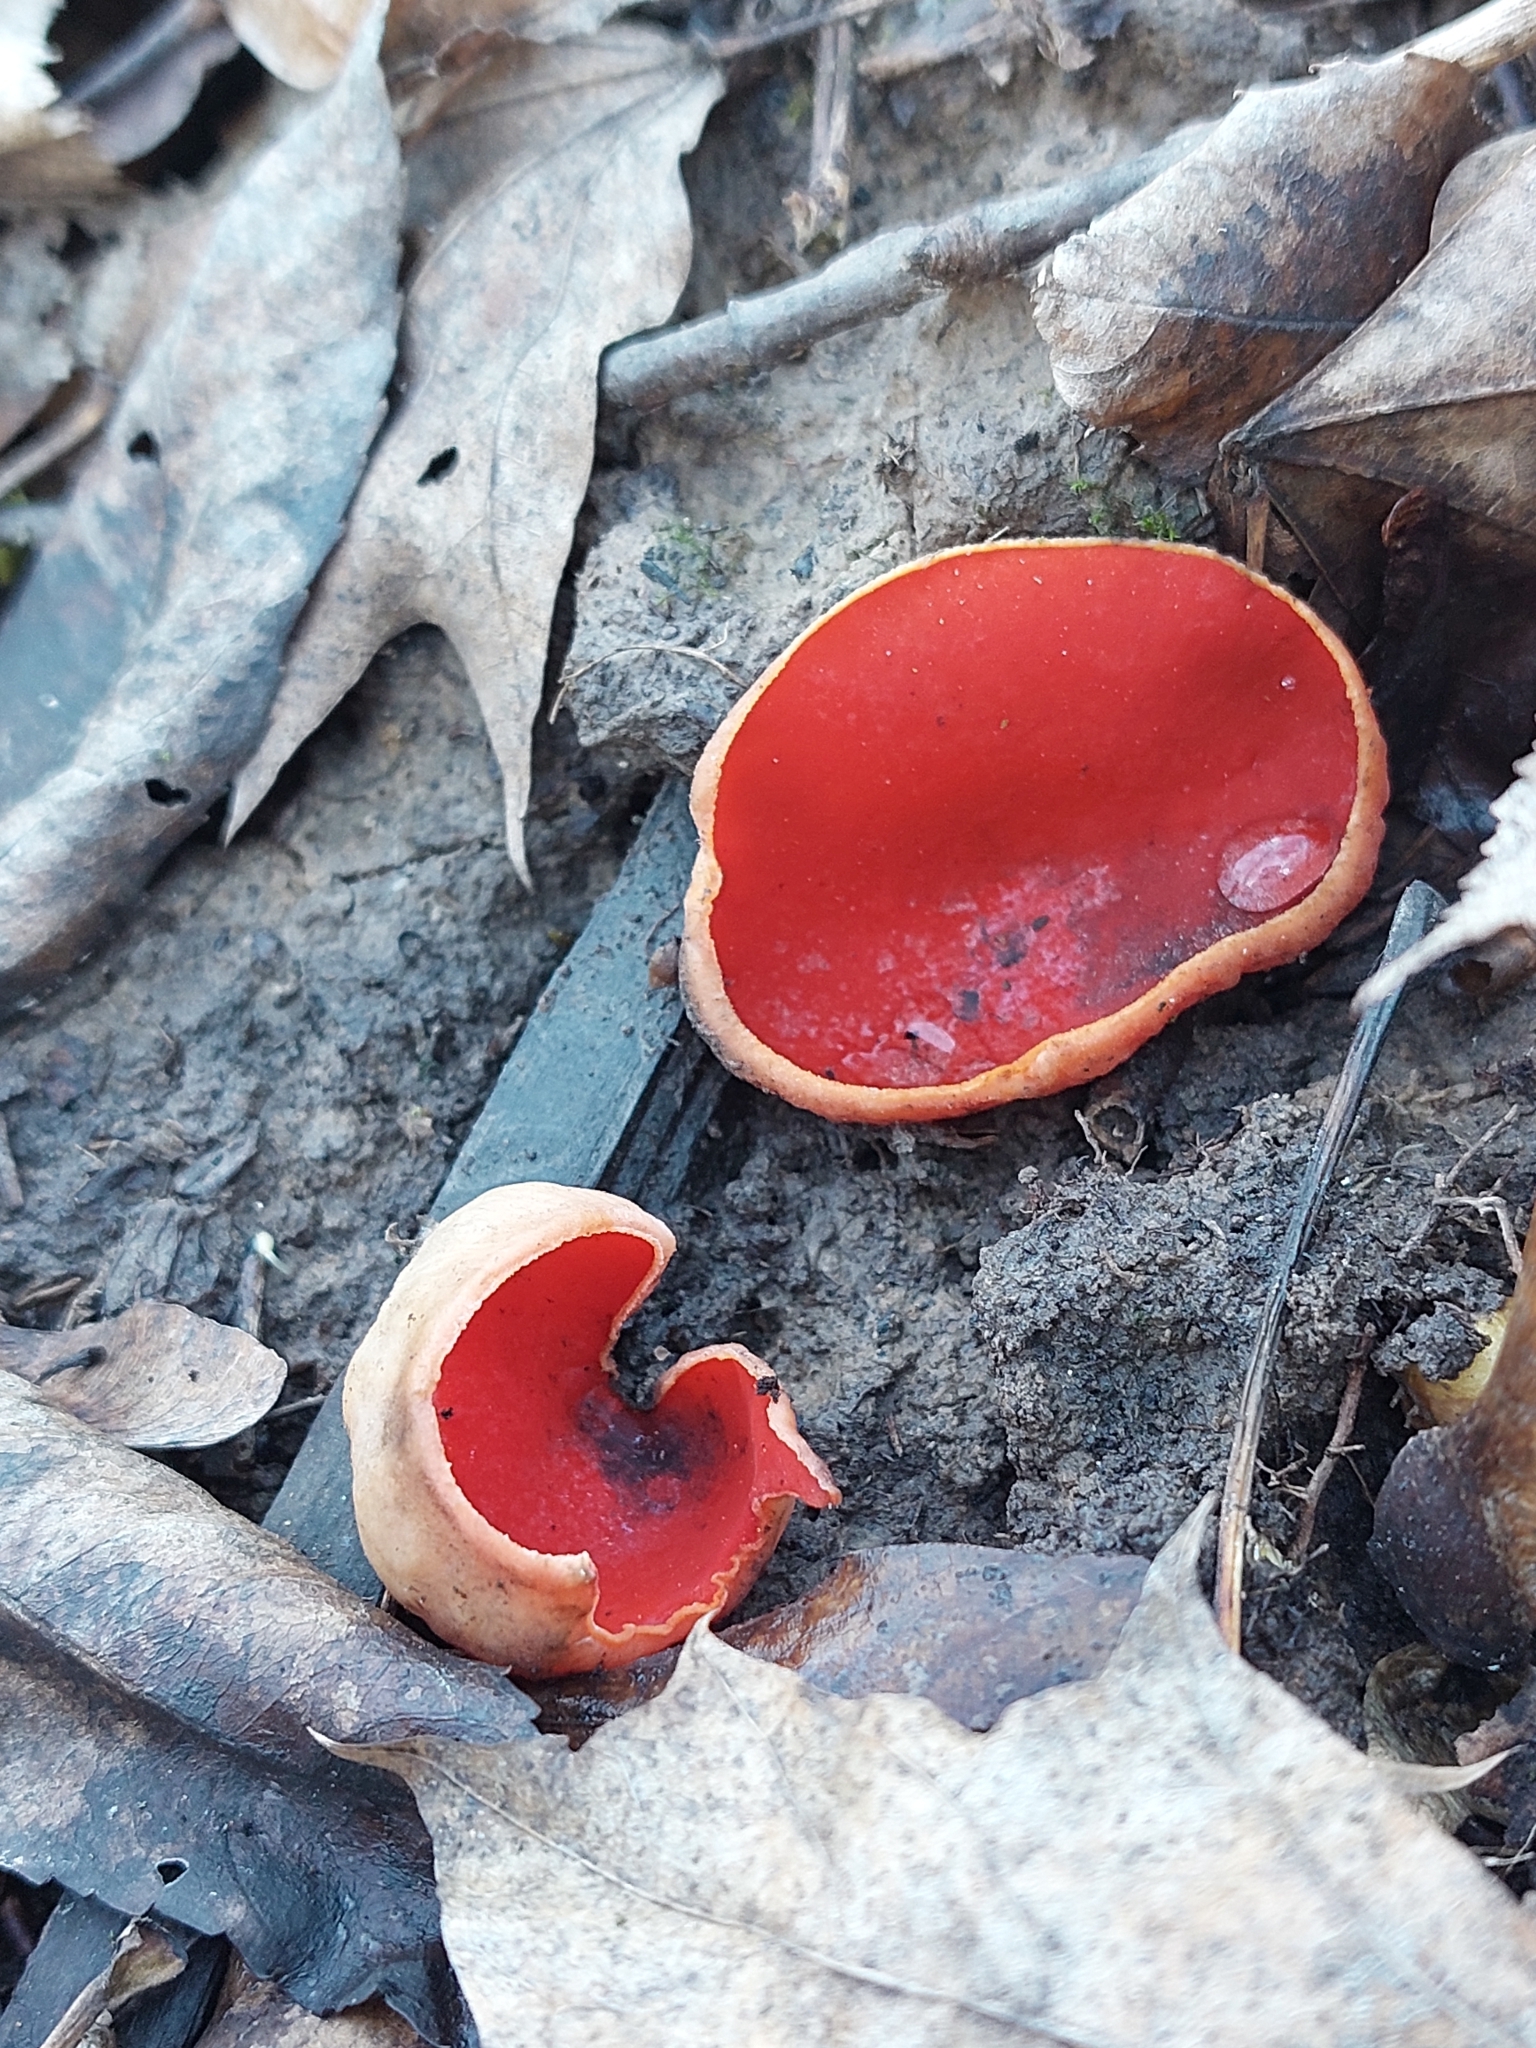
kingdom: Fungi
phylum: Ascomycota
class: Pezizomycetes
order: Pezizales
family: Sarcoscyphaceae
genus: Sarcoscypha
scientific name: Sarcoscypha
